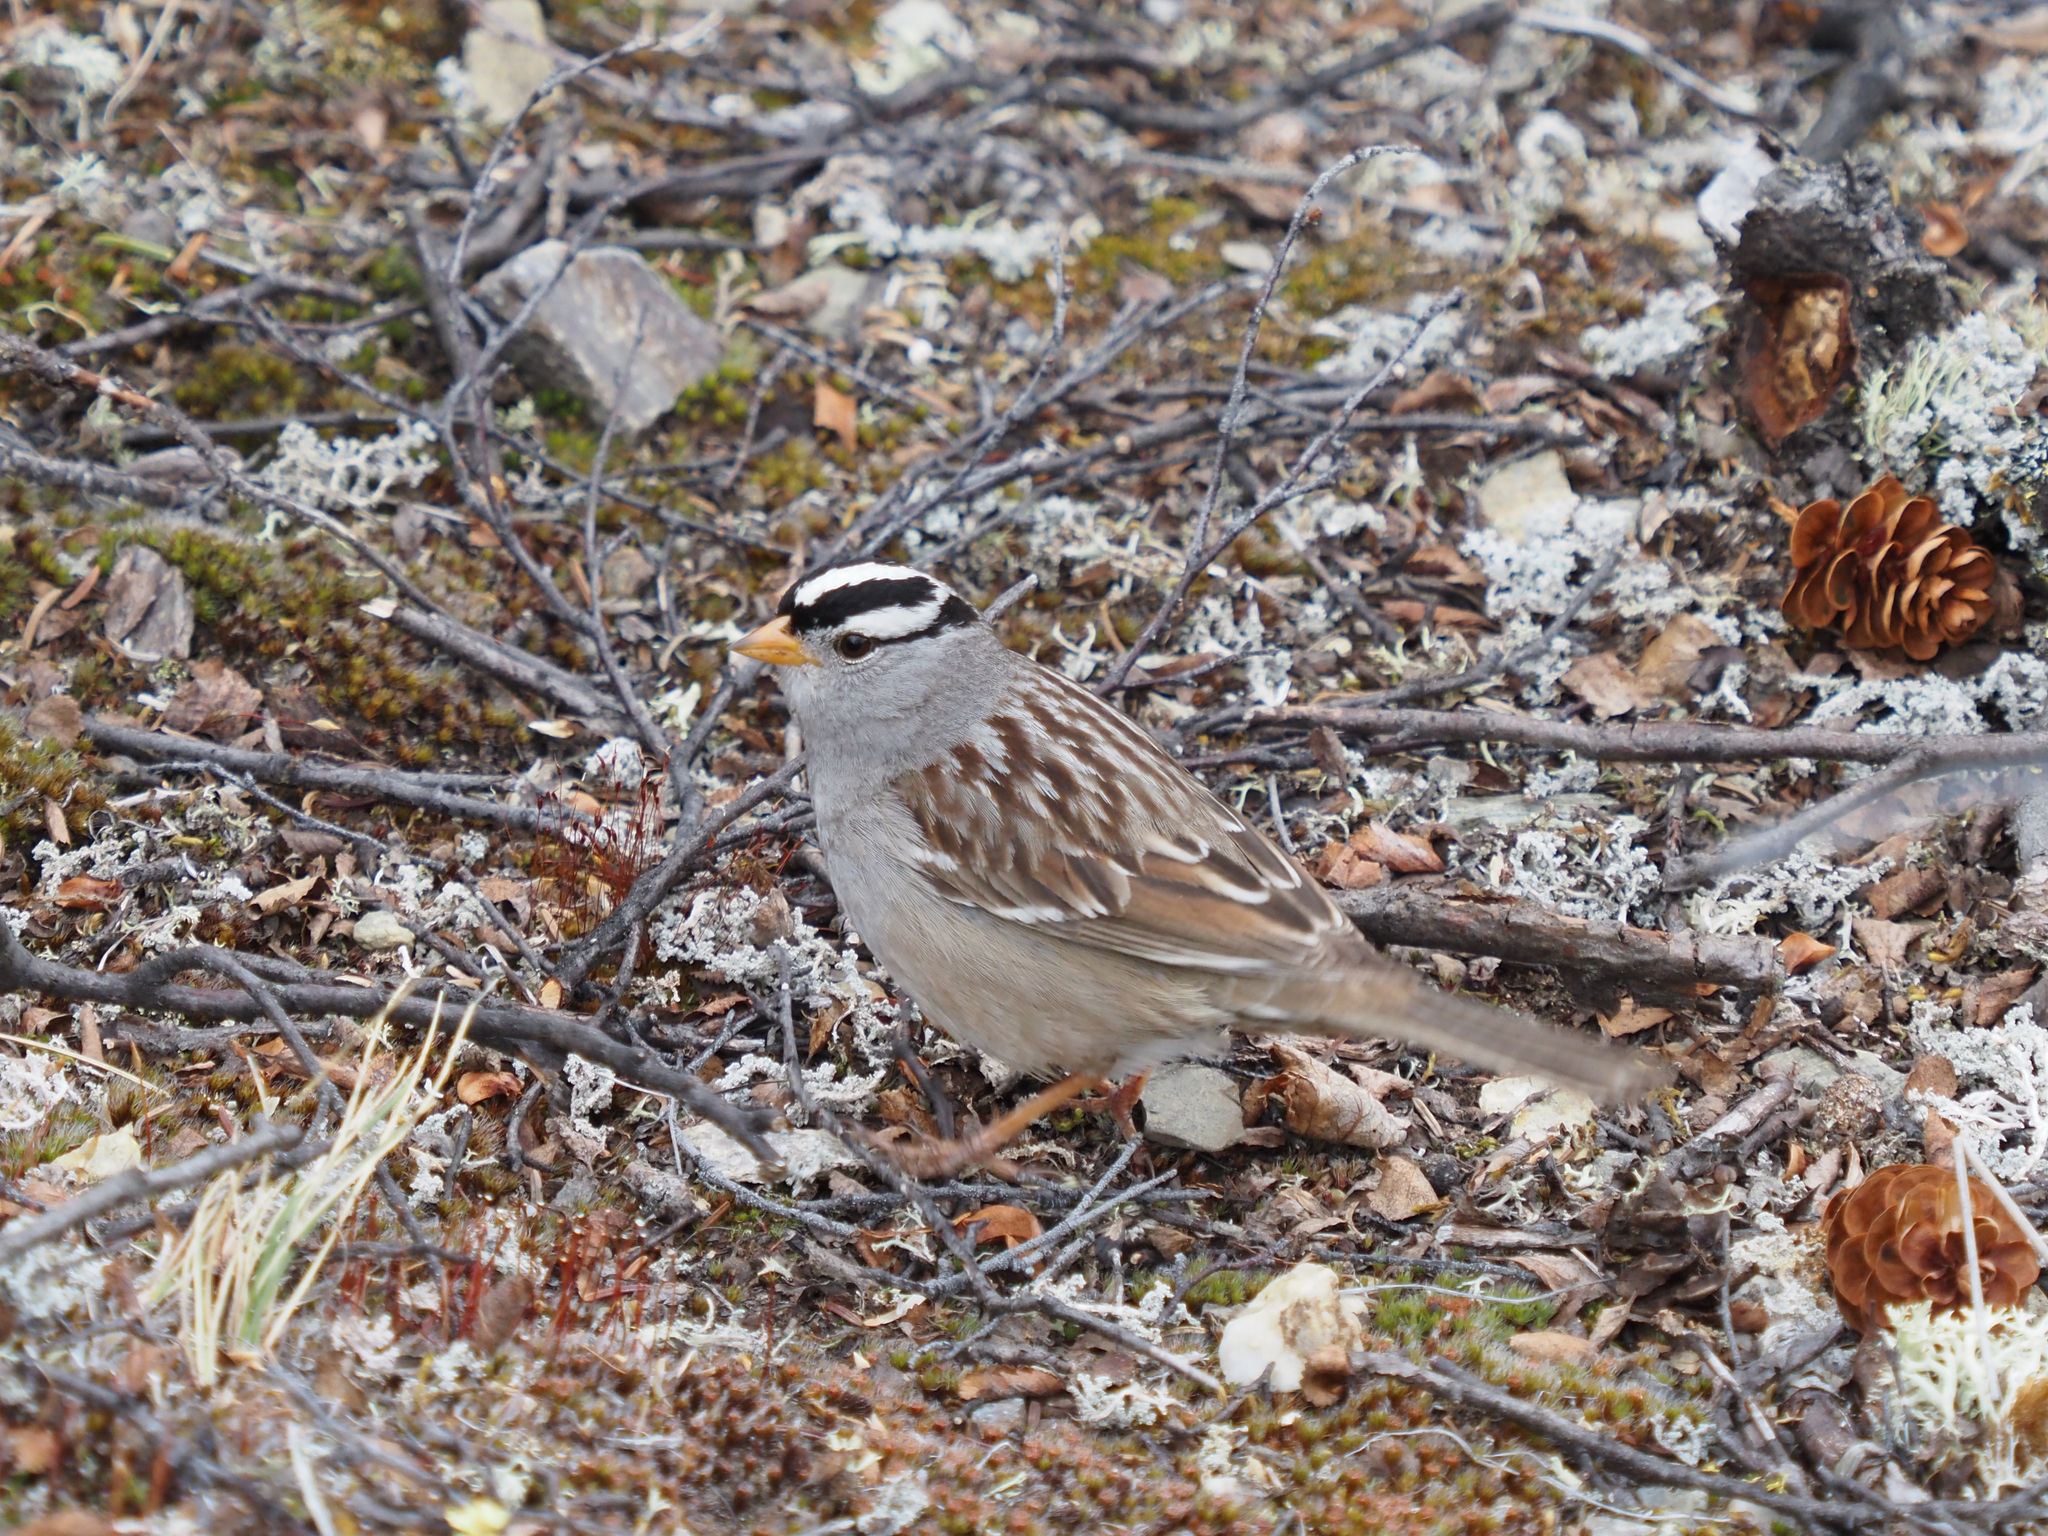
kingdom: Animalia
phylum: Chordata
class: Aves
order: Passeriformes
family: Passerellidae
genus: Zonotrichia
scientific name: Zonotrichia leucophrys
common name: White-crowned sparrow
